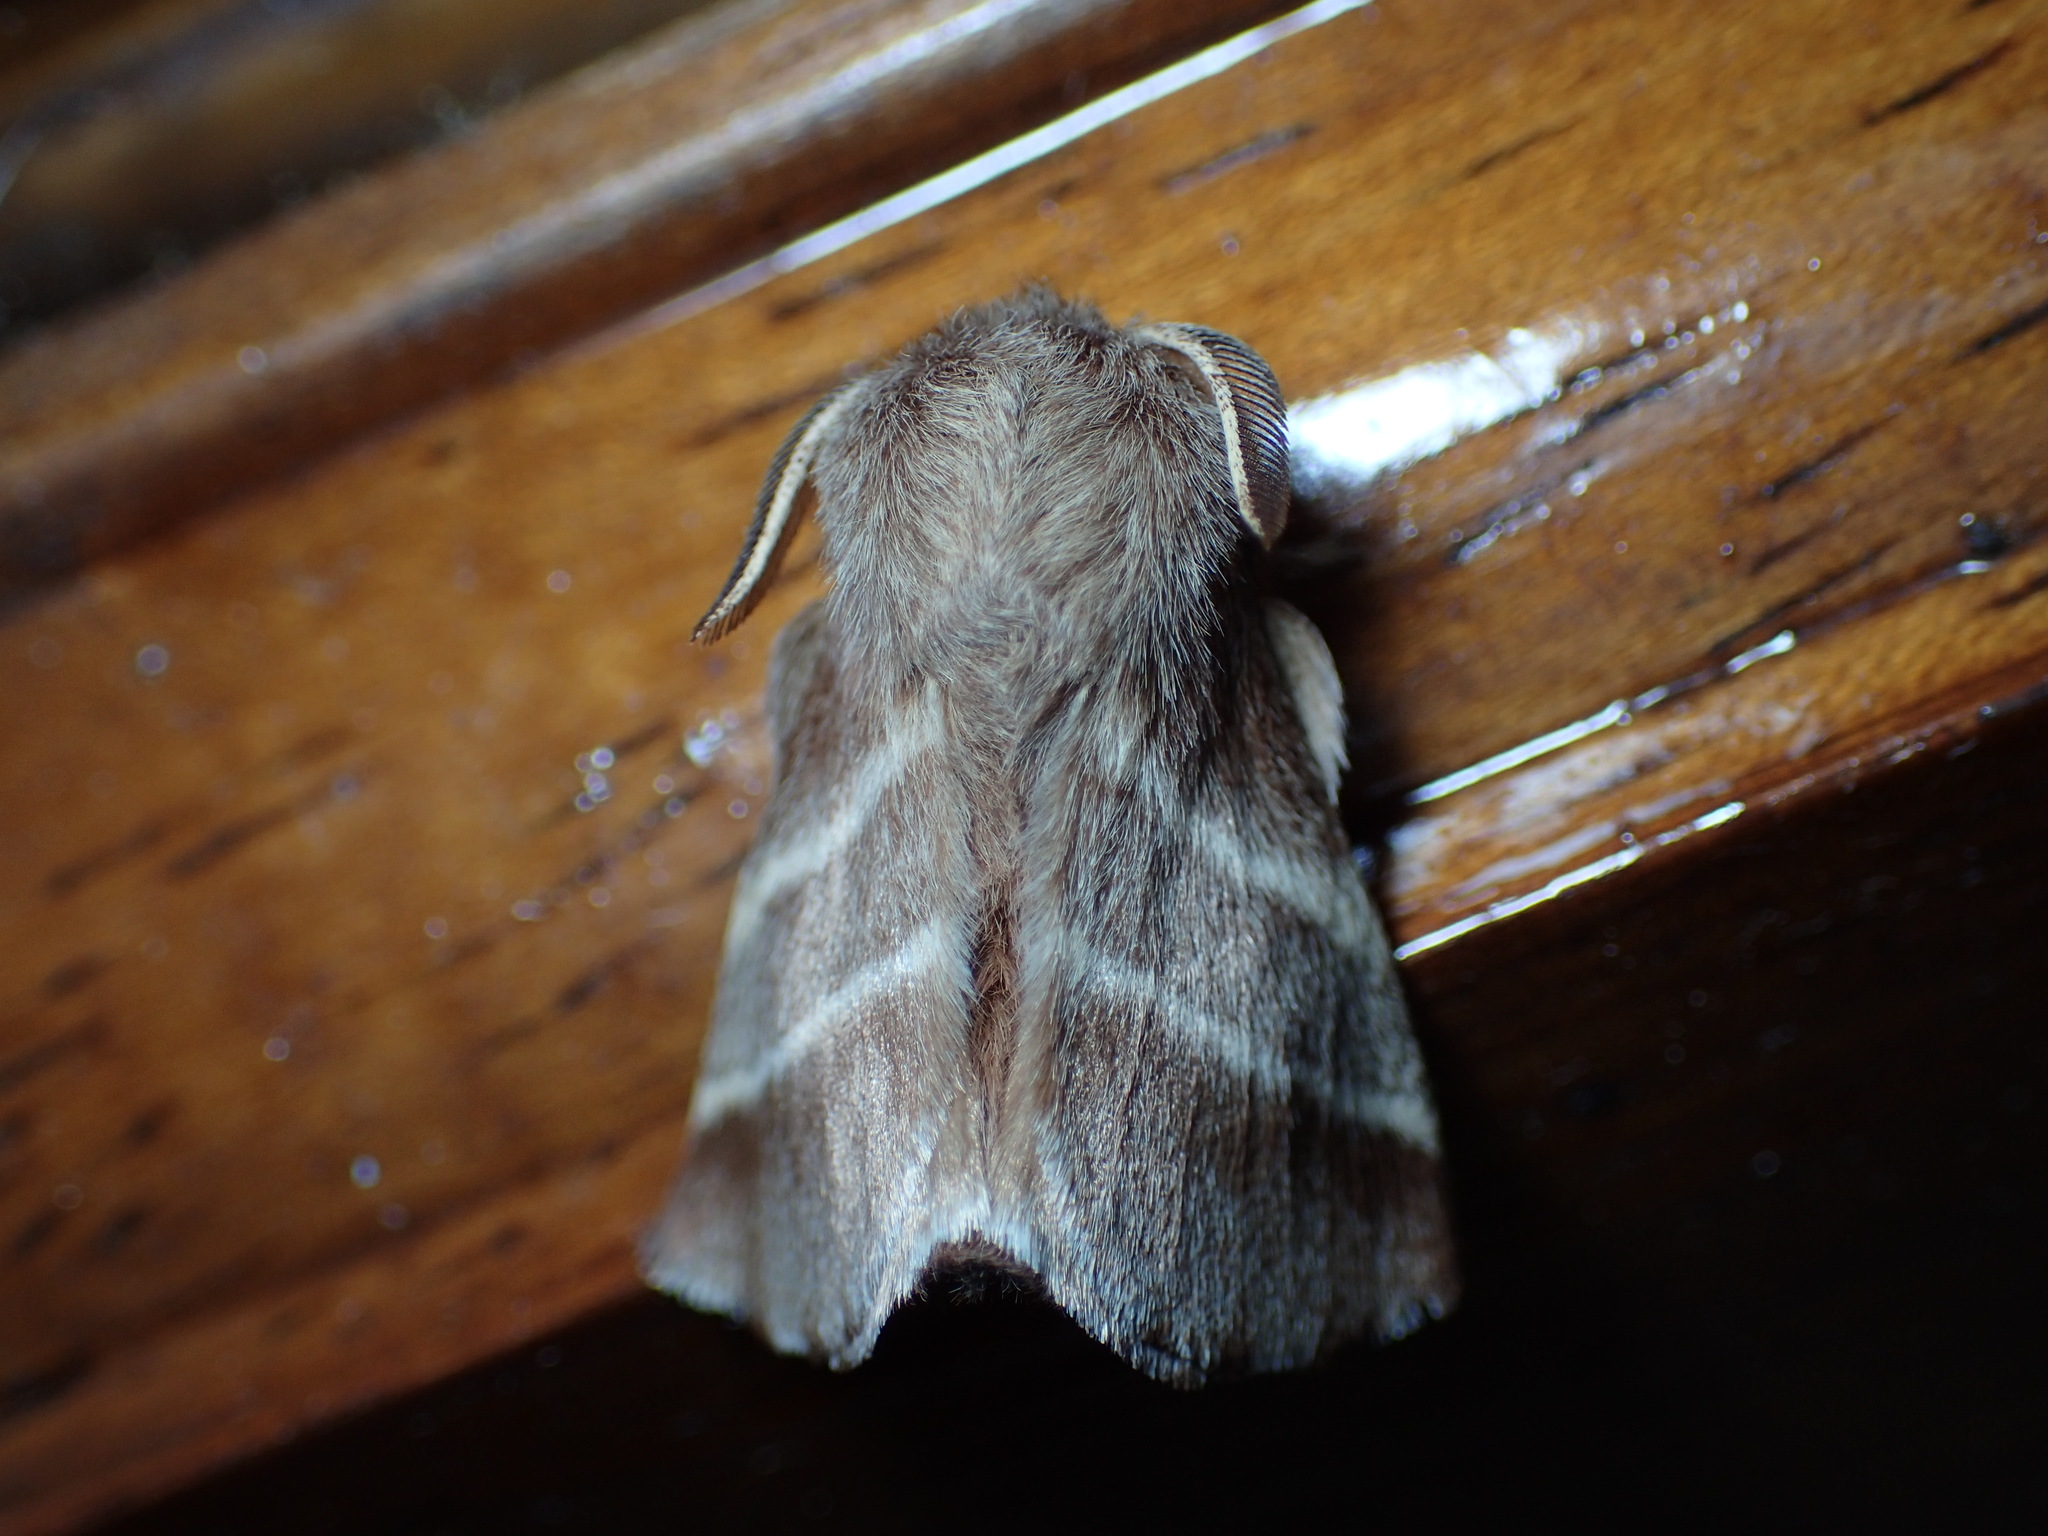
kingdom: Animalia
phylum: Arthropoda
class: Insecta
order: Lepidoptera
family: Lasiocampidae
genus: Malacosoma
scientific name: Malacosoma americana
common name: Eastern tent caterpillar moth
